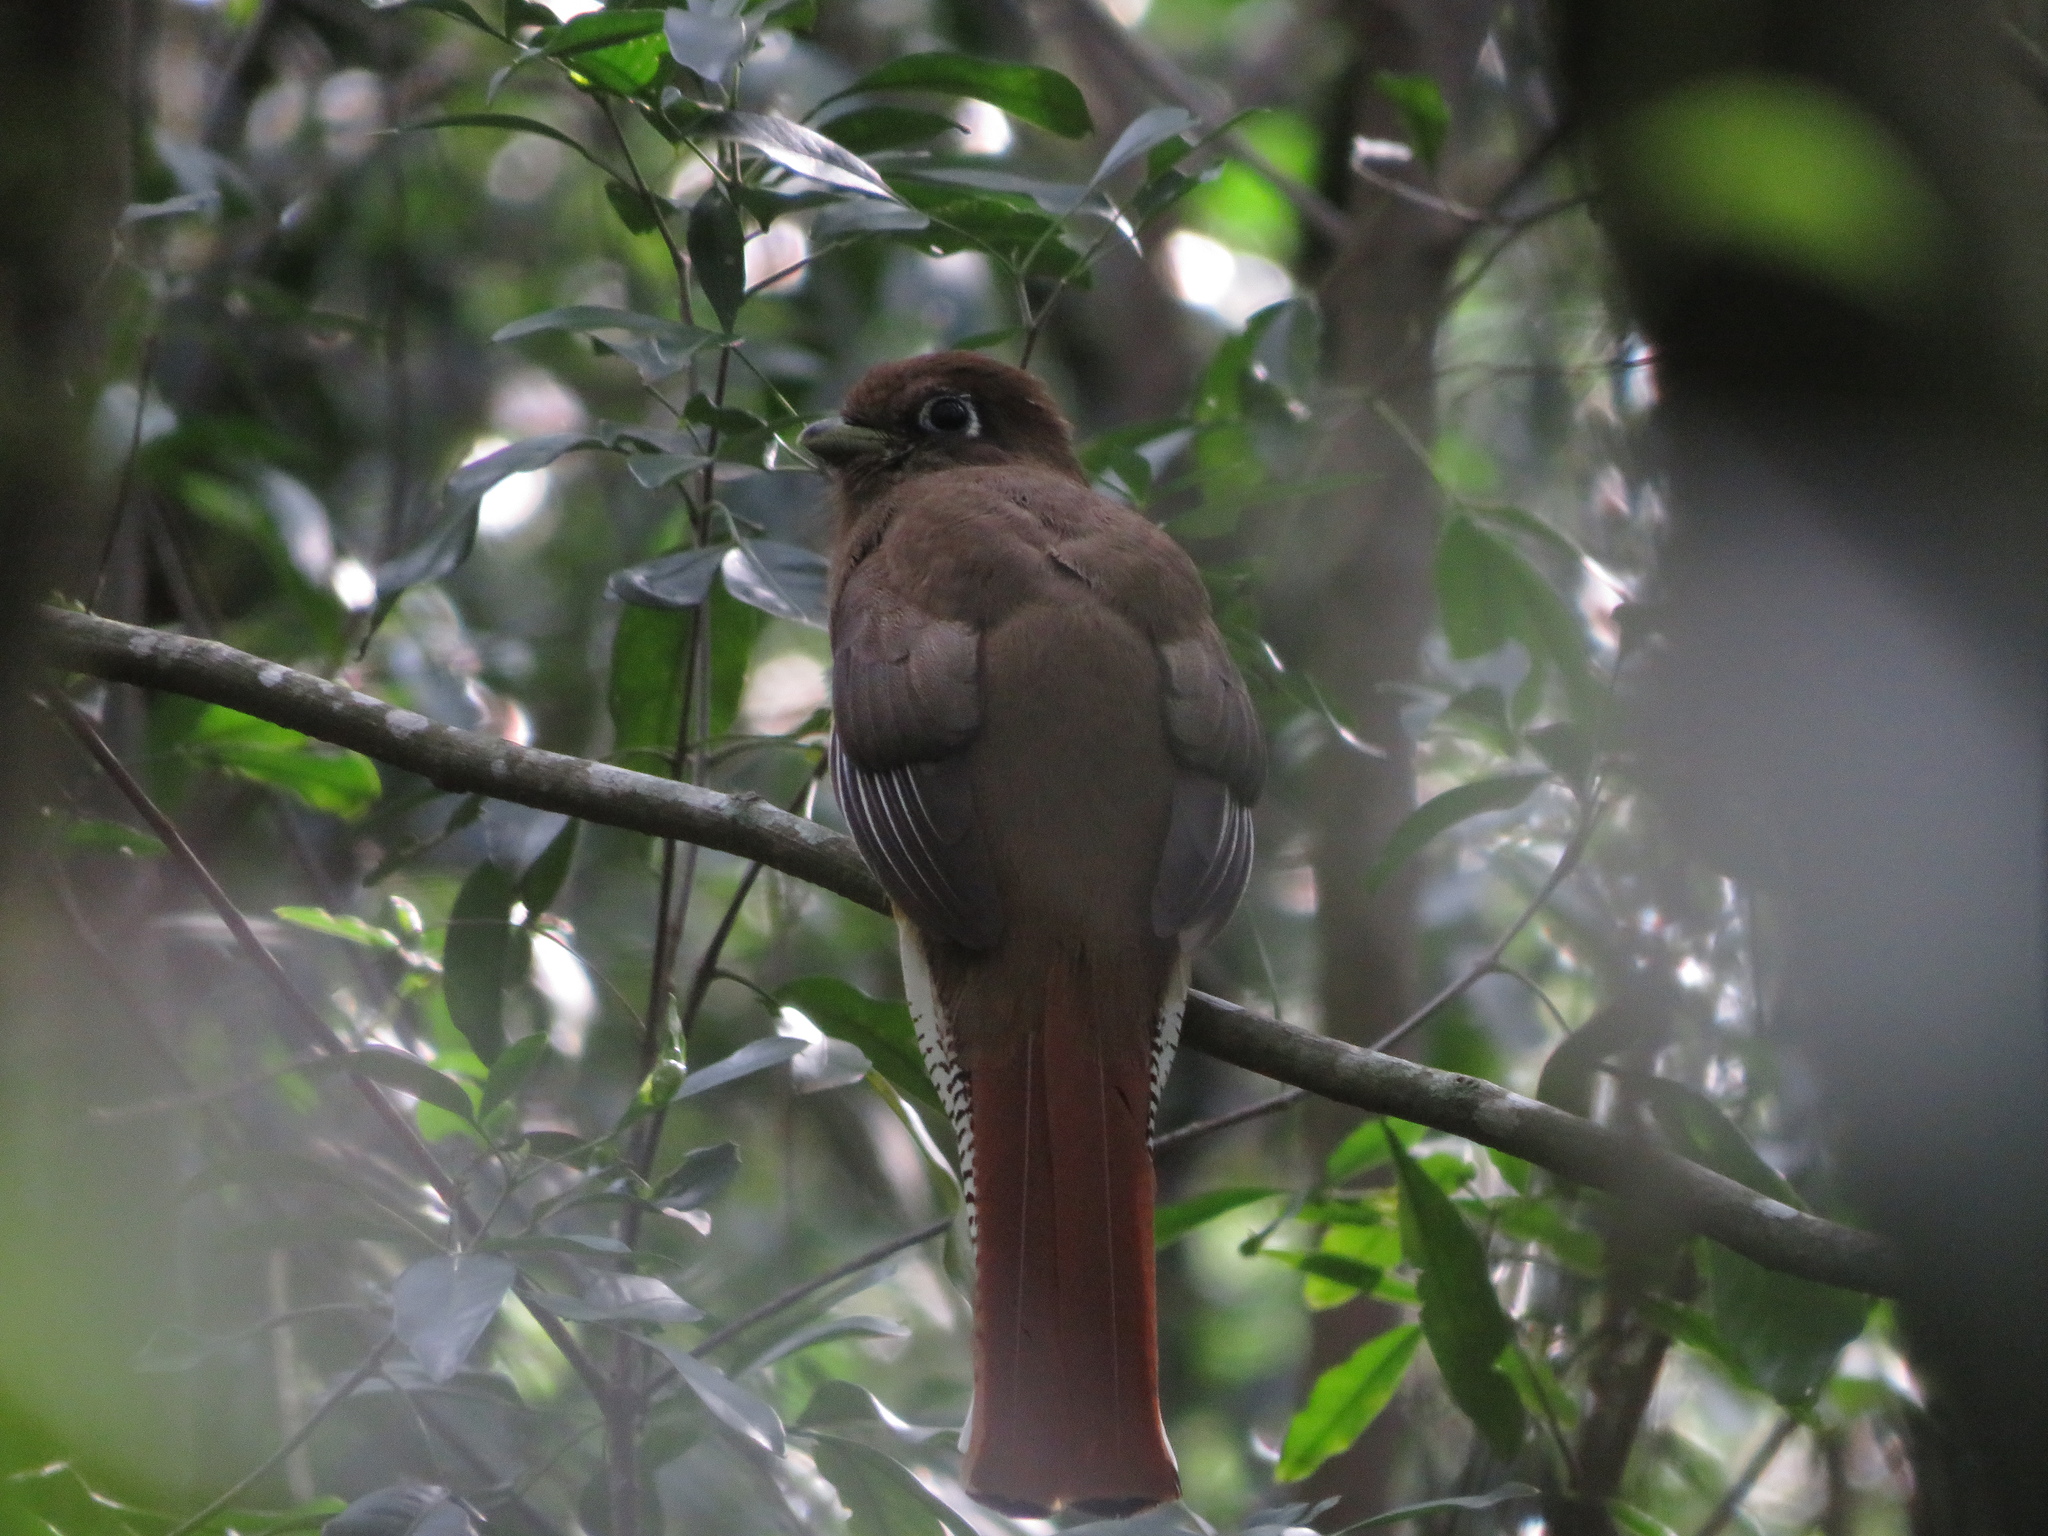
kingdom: Animalia
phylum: Chordata
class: Aves
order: Trogoniformes
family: Trogonidae
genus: Trogon
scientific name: Trogon rufus
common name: Black-throated trogon
